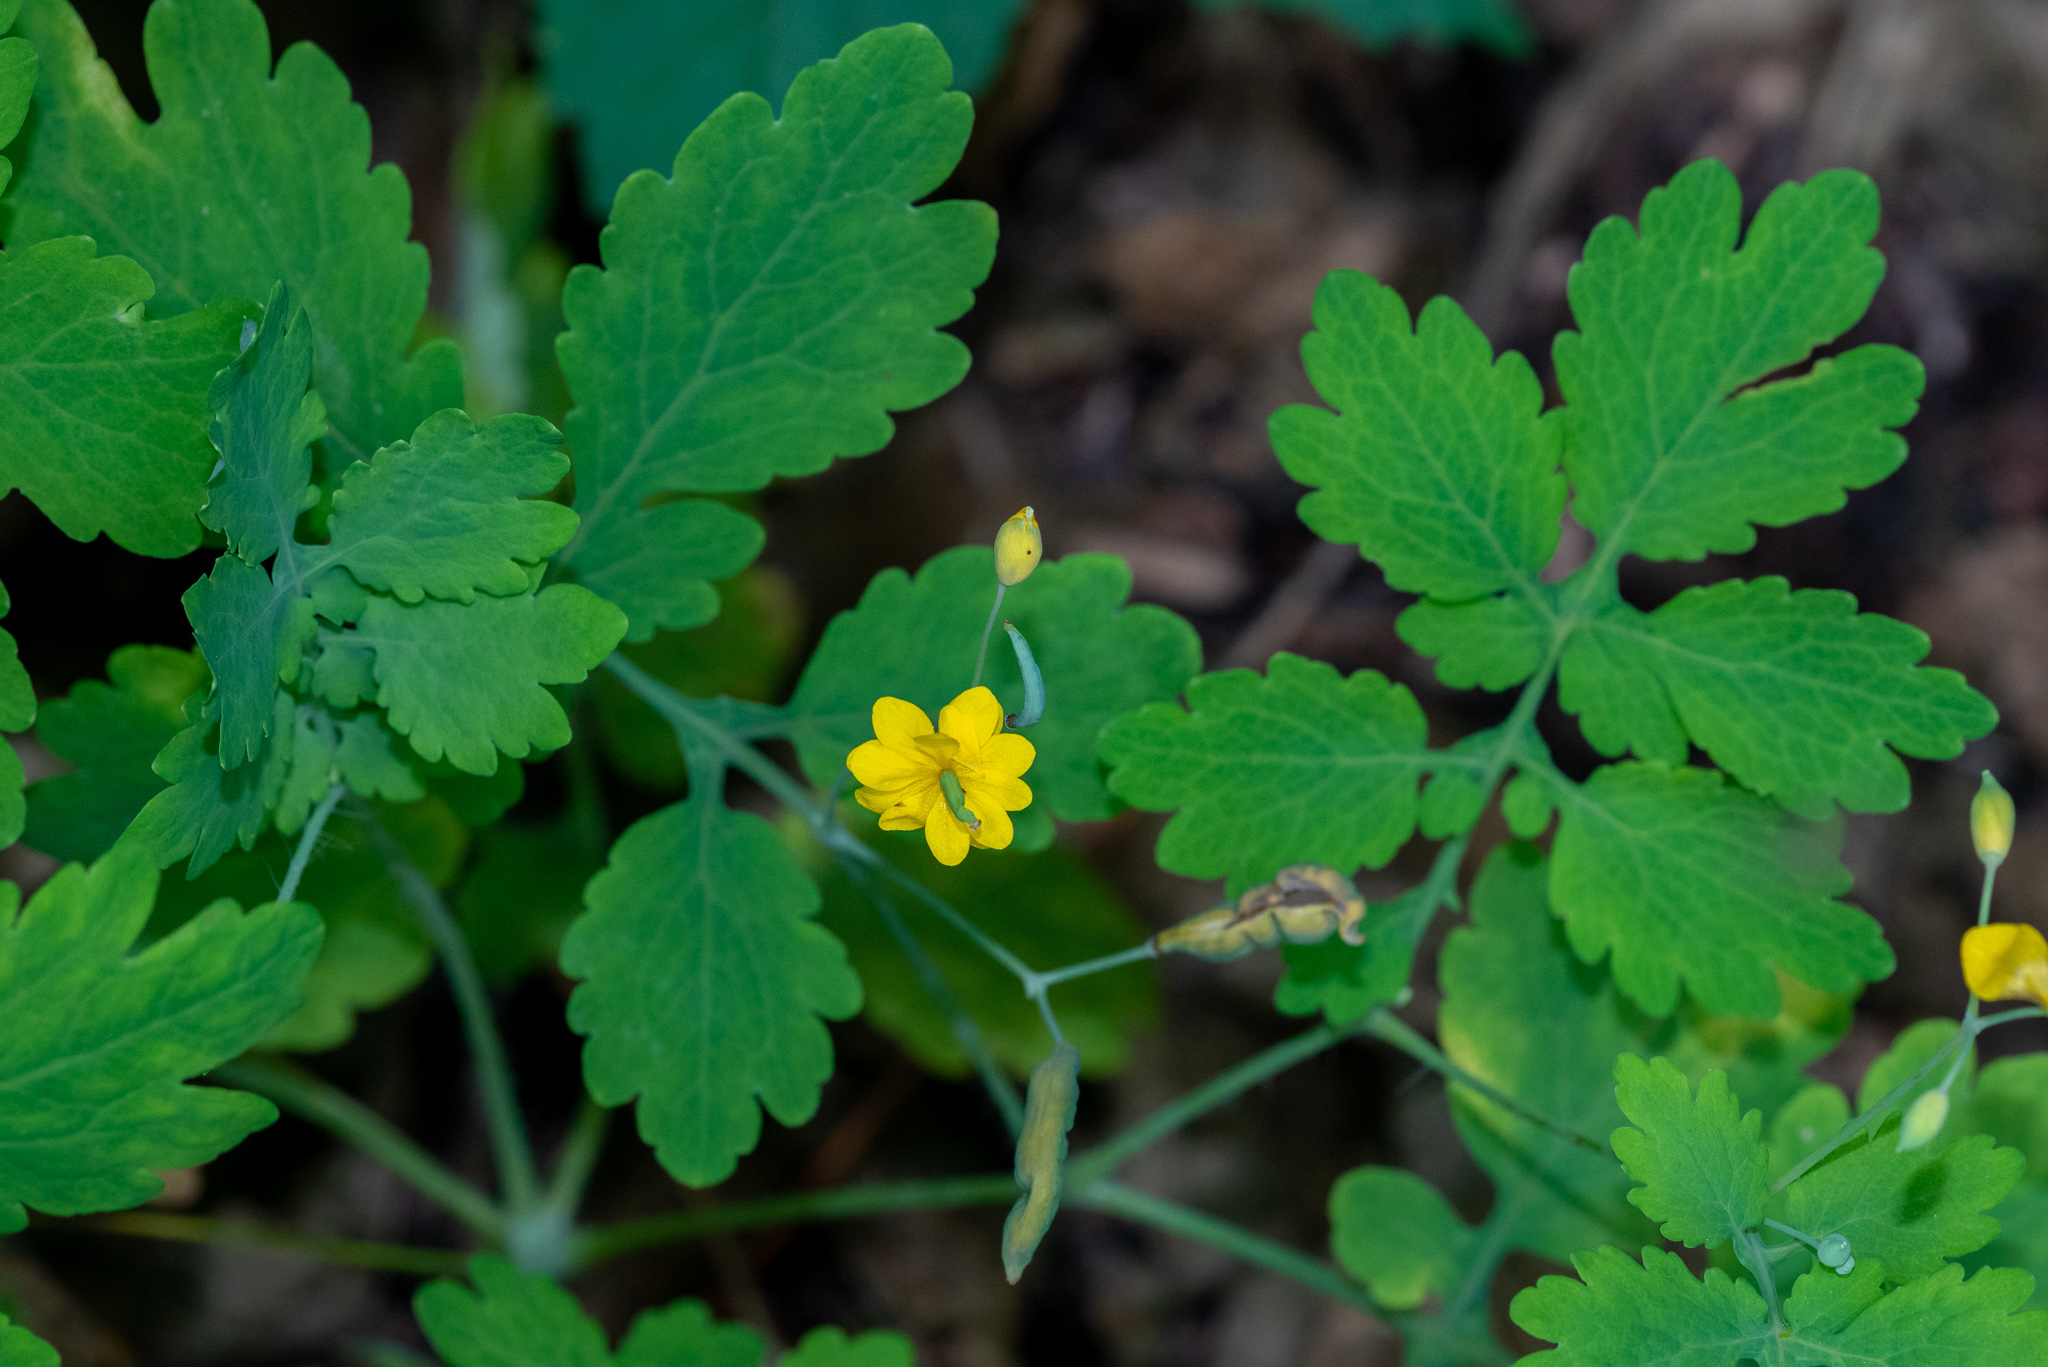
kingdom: Plantae
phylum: Tracheophyta
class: Magnoliopsida
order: Ranunculales
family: Papaveraceae
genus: Chelidonium
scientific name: Chelidonium majus
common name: Greater celandine
